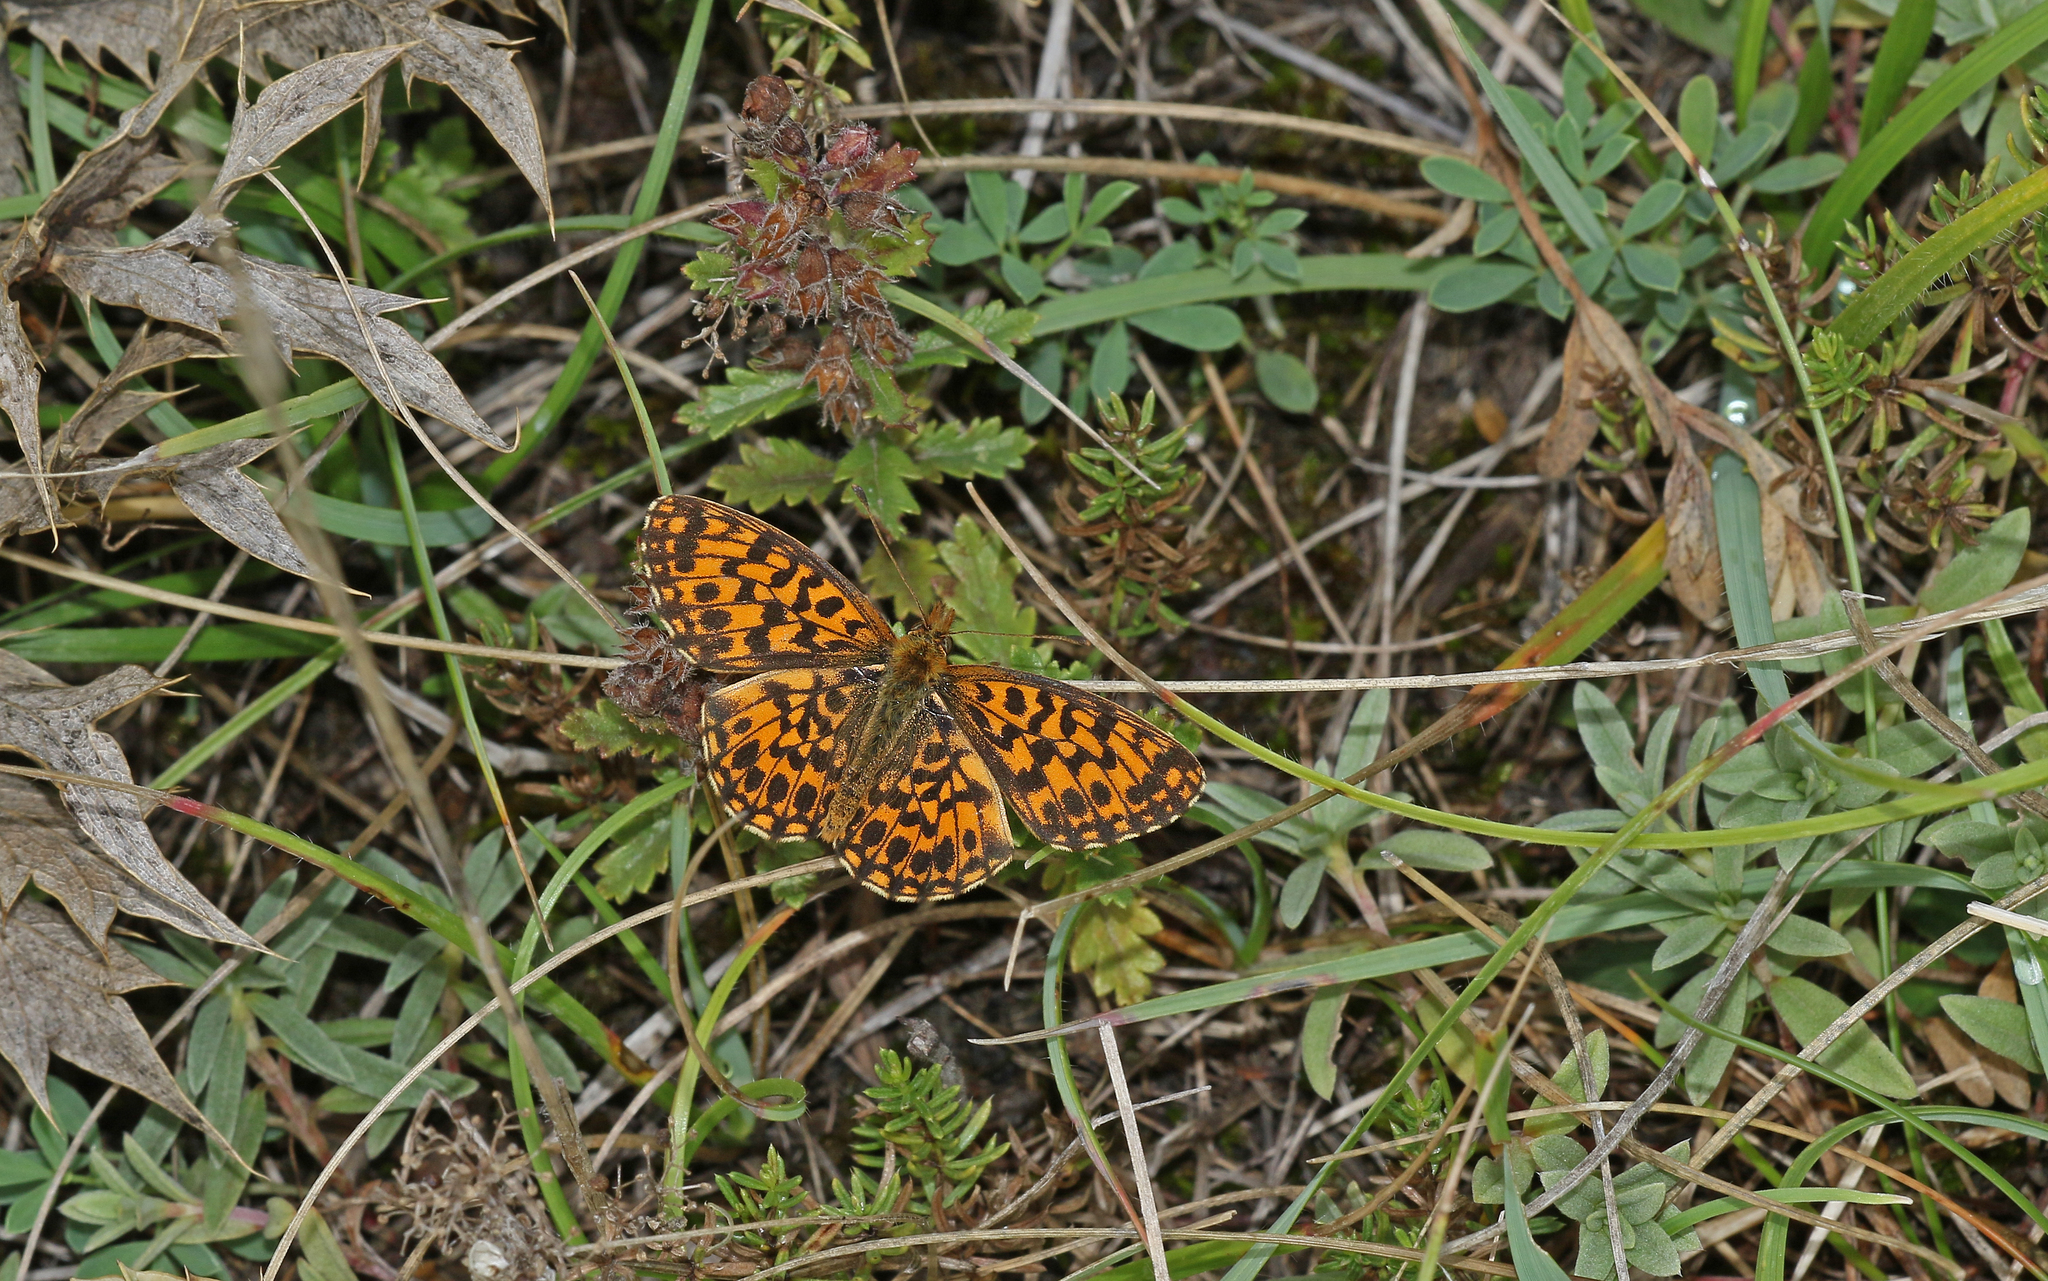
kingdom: Animalia
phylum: Arthropoda
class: Insecta
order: Lepidoptera
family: Nymphalidae
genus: Boloria
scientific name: Boloria dia
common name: Weaver's fritillary
